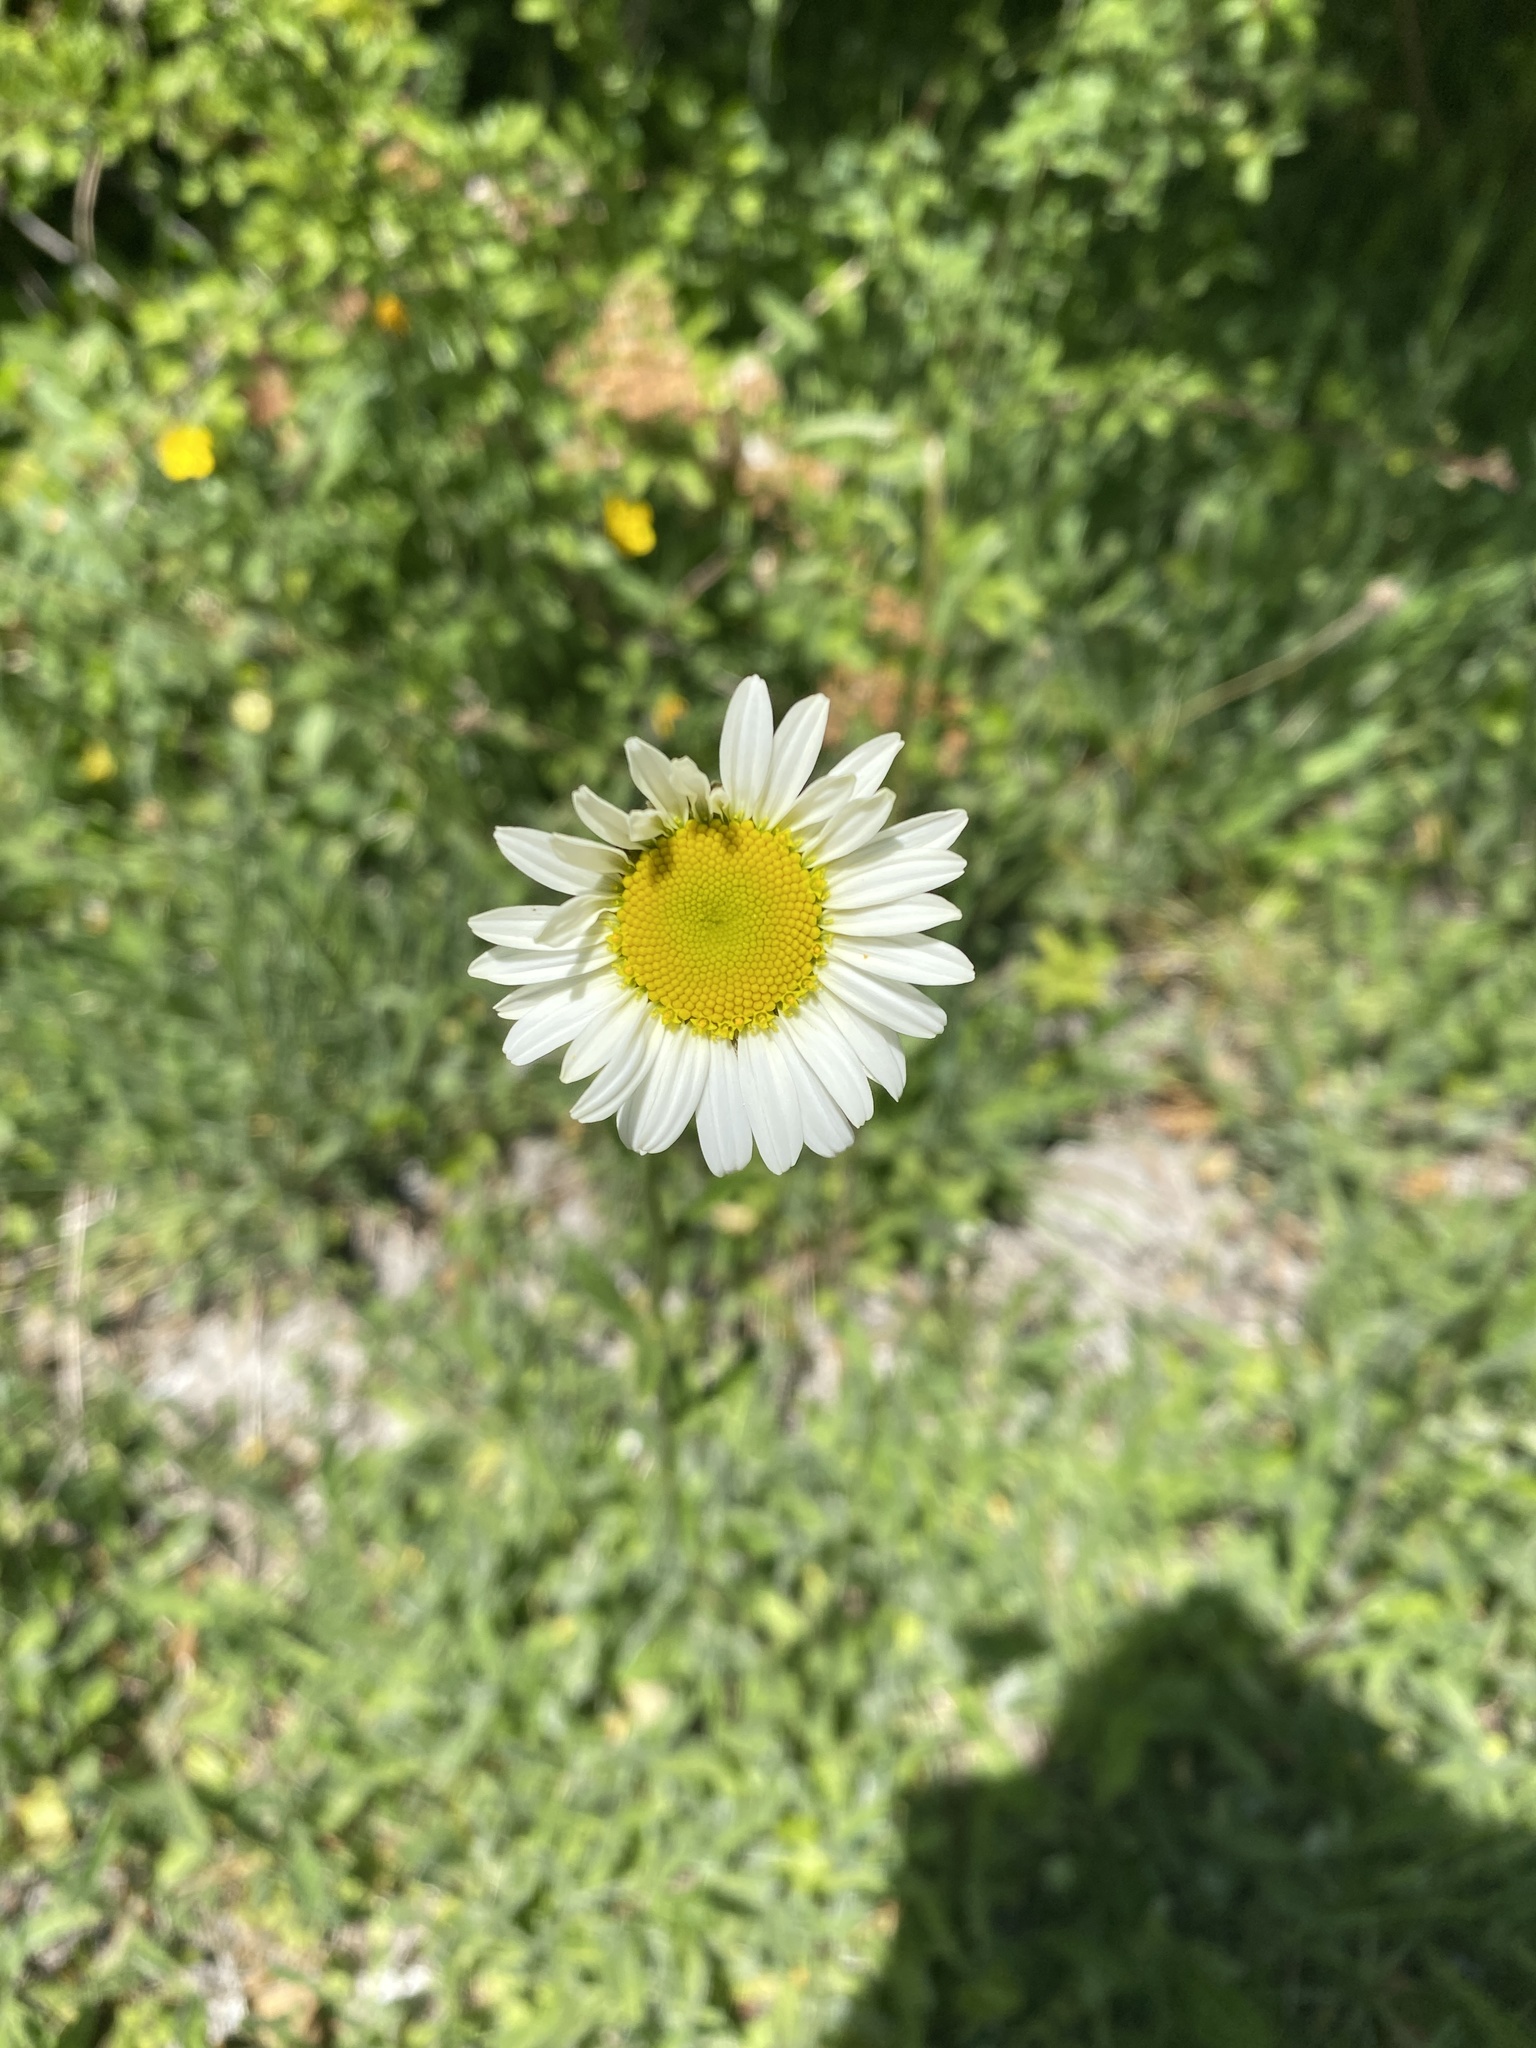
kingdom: Plantae
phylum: Tracheophyta
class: Magnoliopsida
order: Asterales
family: Asteraceae
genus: Leucanthemum
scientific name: Leucanthemum vulgare
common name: Oxeye daisy
